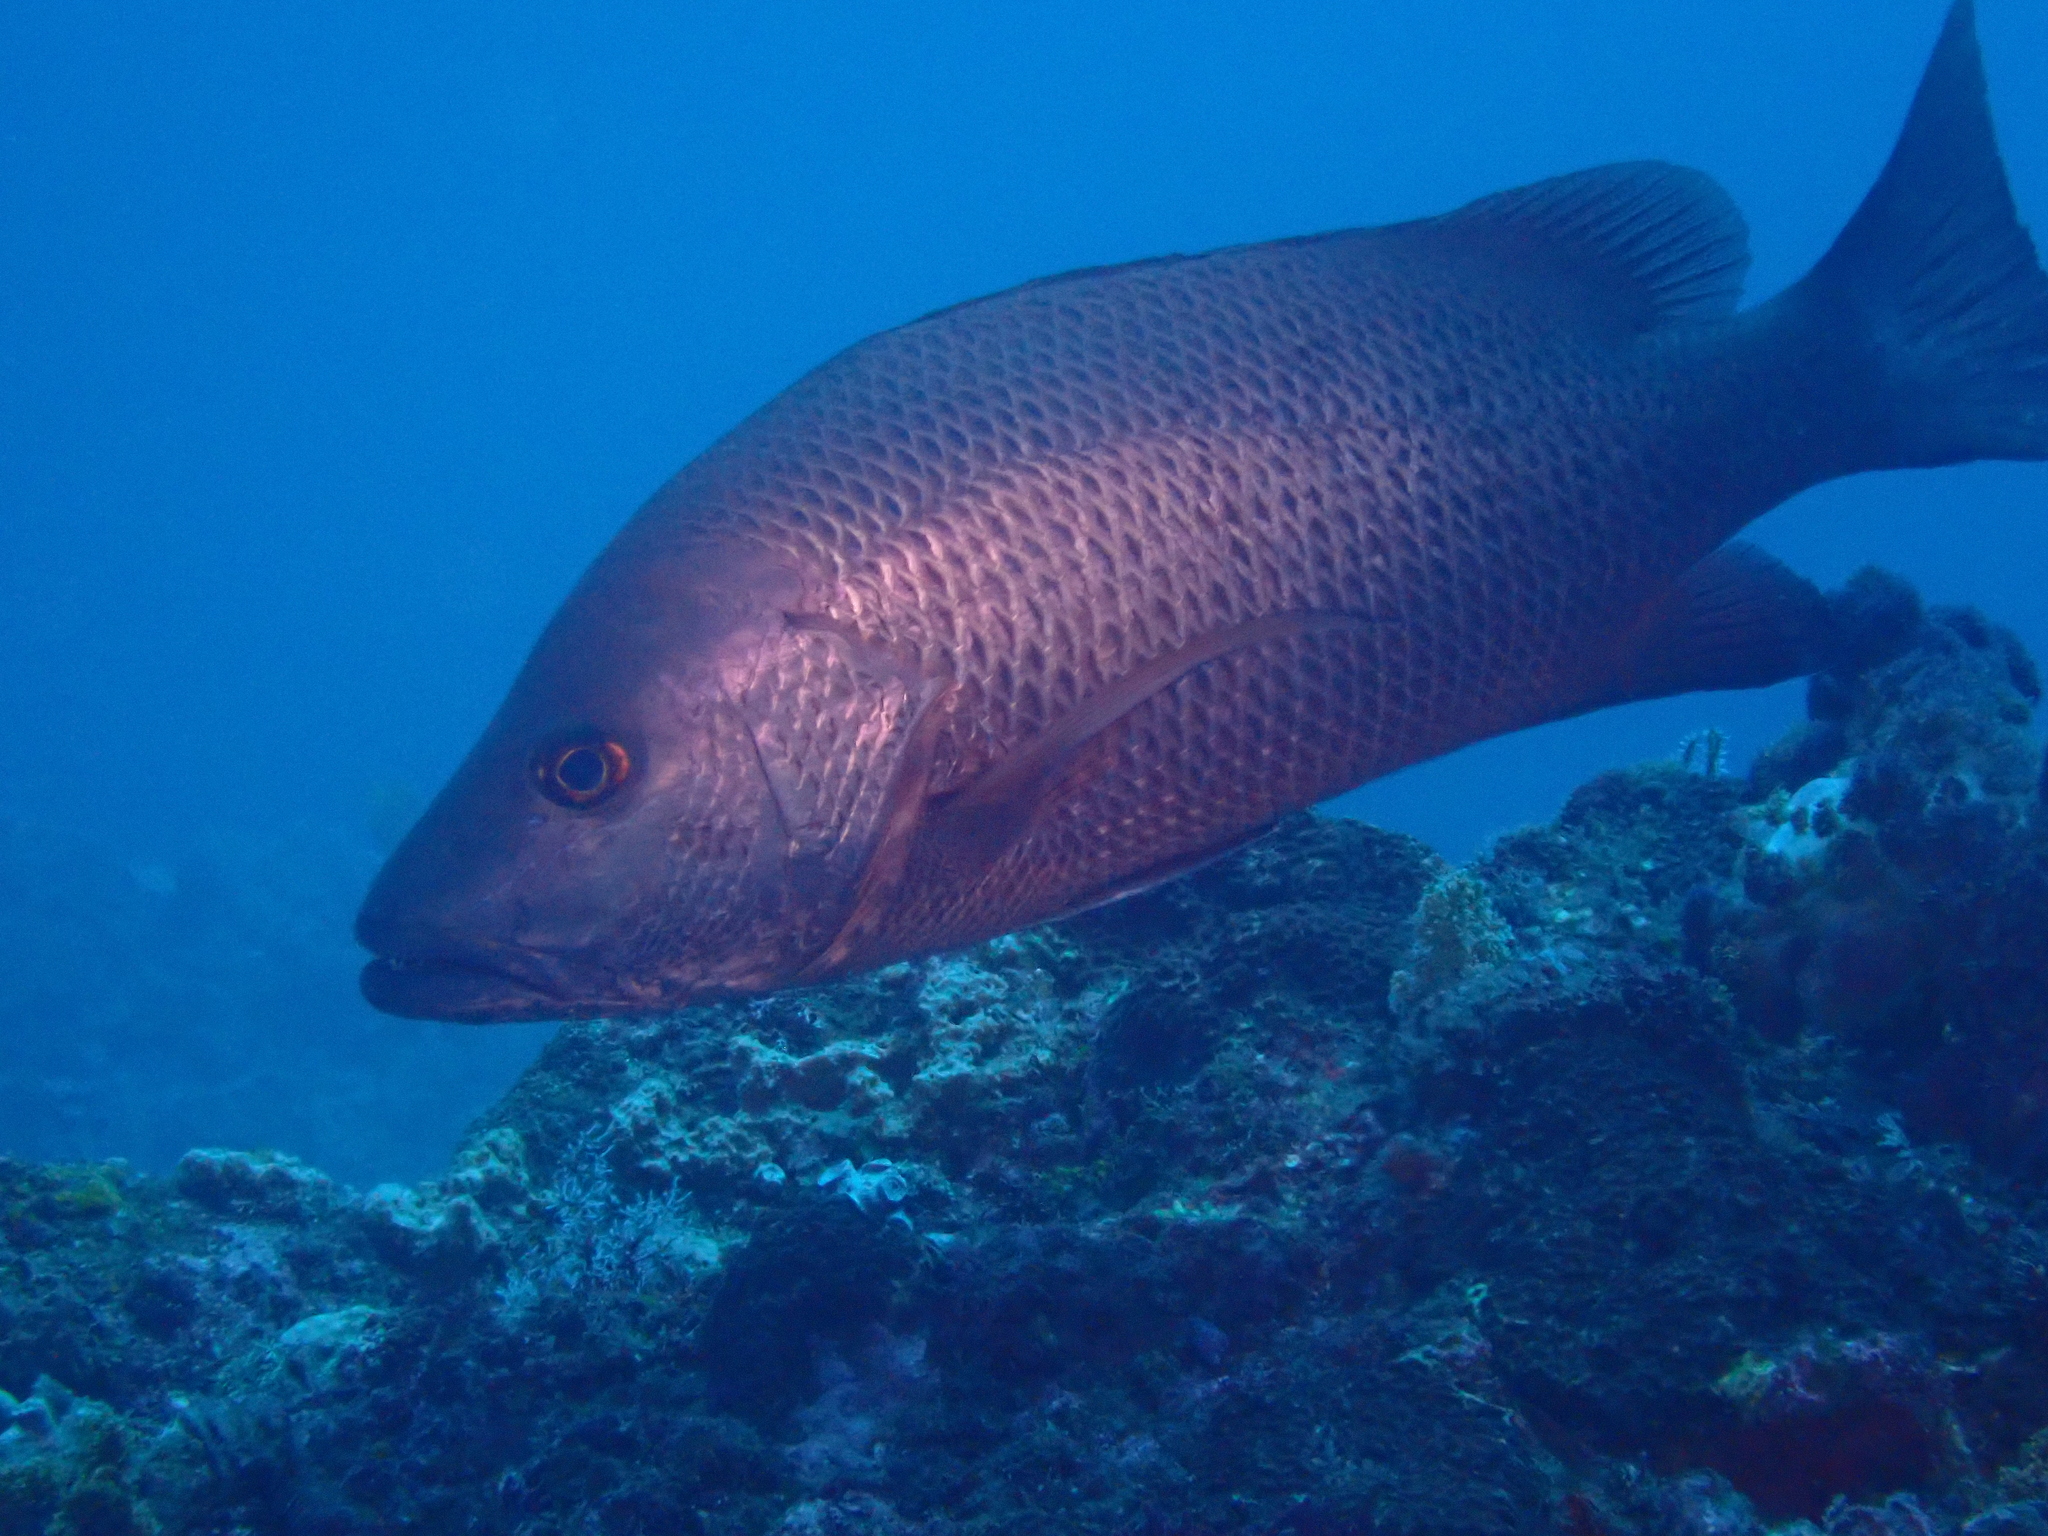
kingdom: Animalia
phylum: Chordata
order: Perciformes
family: Lutjanidae
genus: Lutjanus
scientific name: Lutjanus argentimaculatus
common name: Mangrove red snapper
